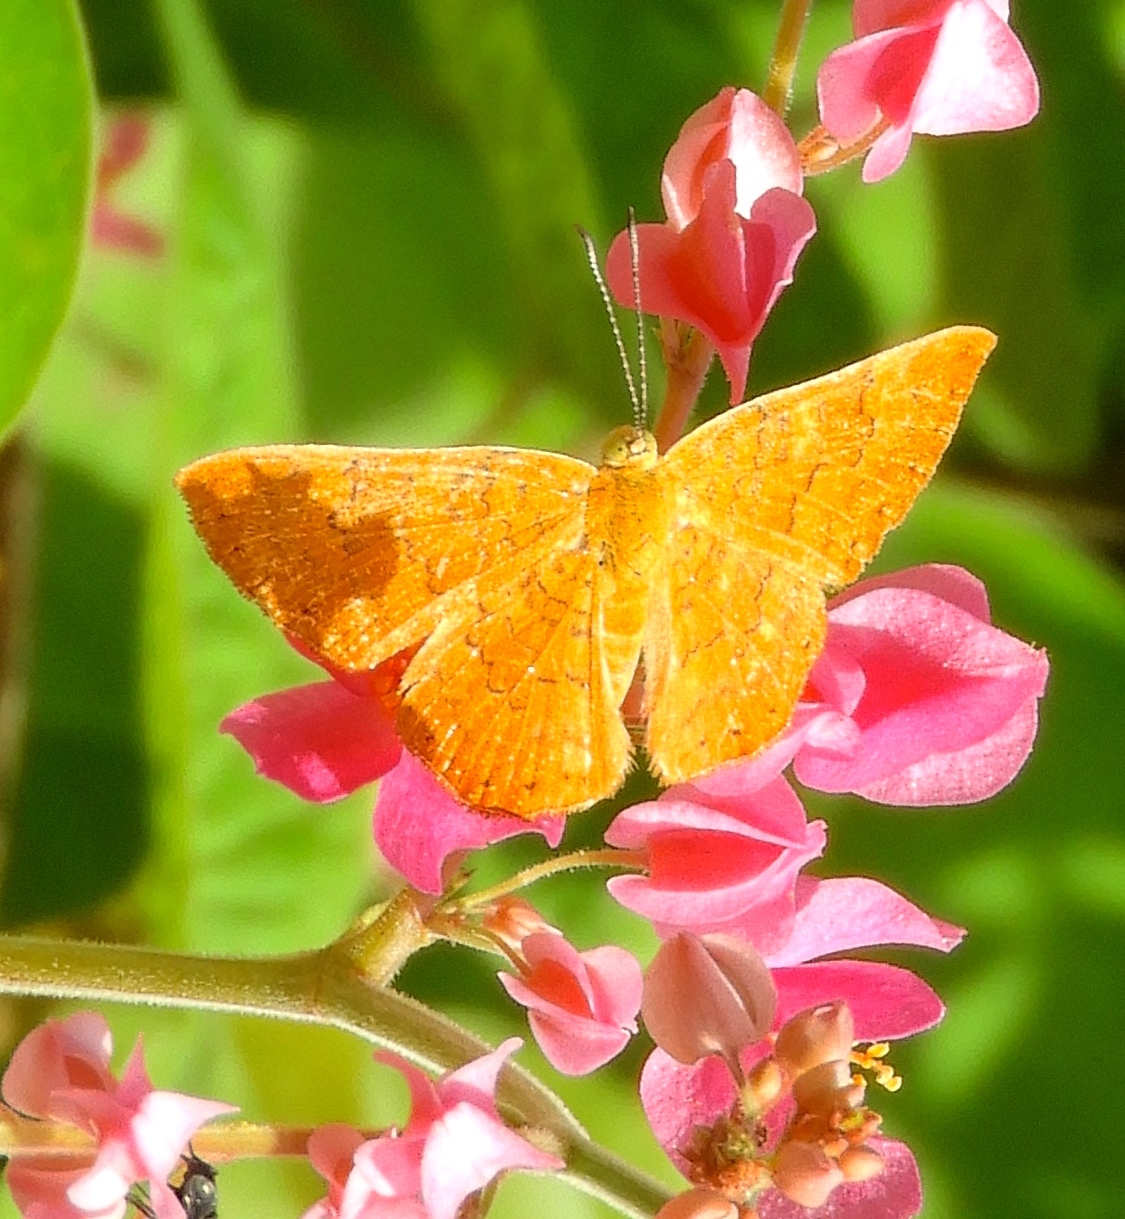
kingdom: Animalia
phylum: Arthropoda
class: Insecta
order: Lepidoptera
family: Lycaenidae
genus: Emesis
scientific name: Emesis
